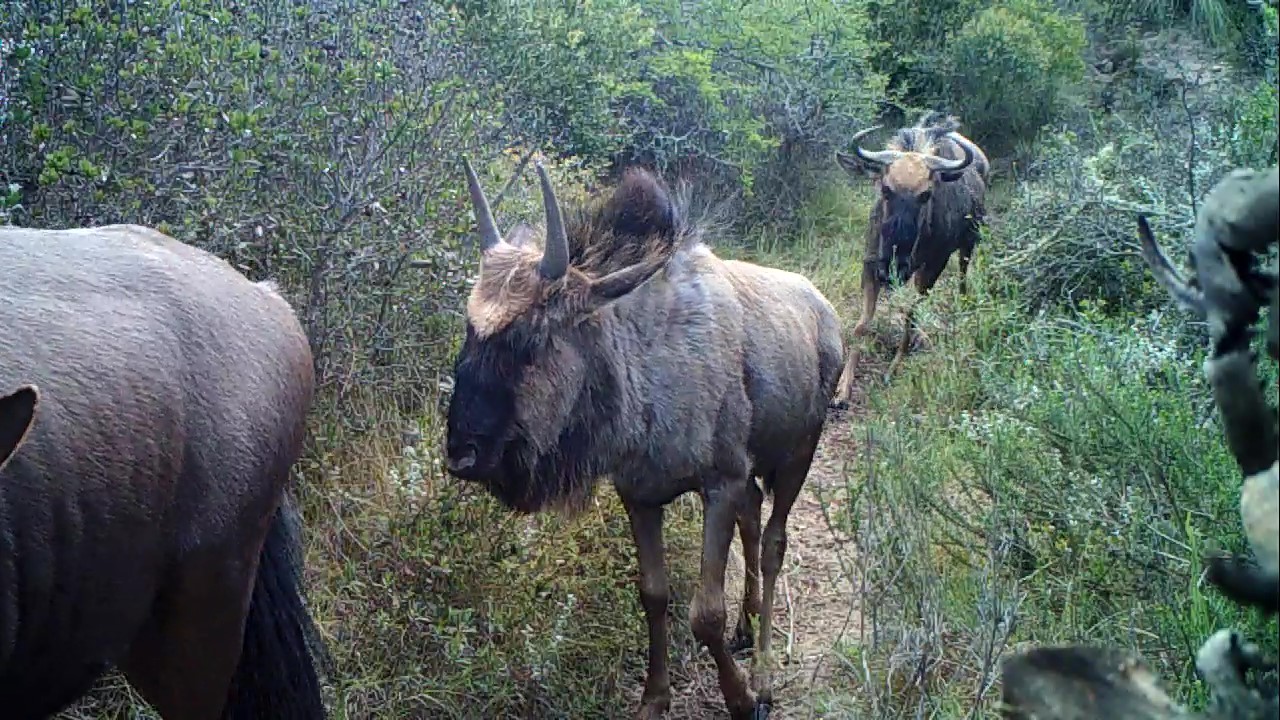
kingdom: Animalia
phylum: Chordata
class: Mammalia
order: Artiodactyla
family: Bovidae
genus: Connochaetes
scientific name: Connochaetes taurinus
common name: Blue wildebeest
